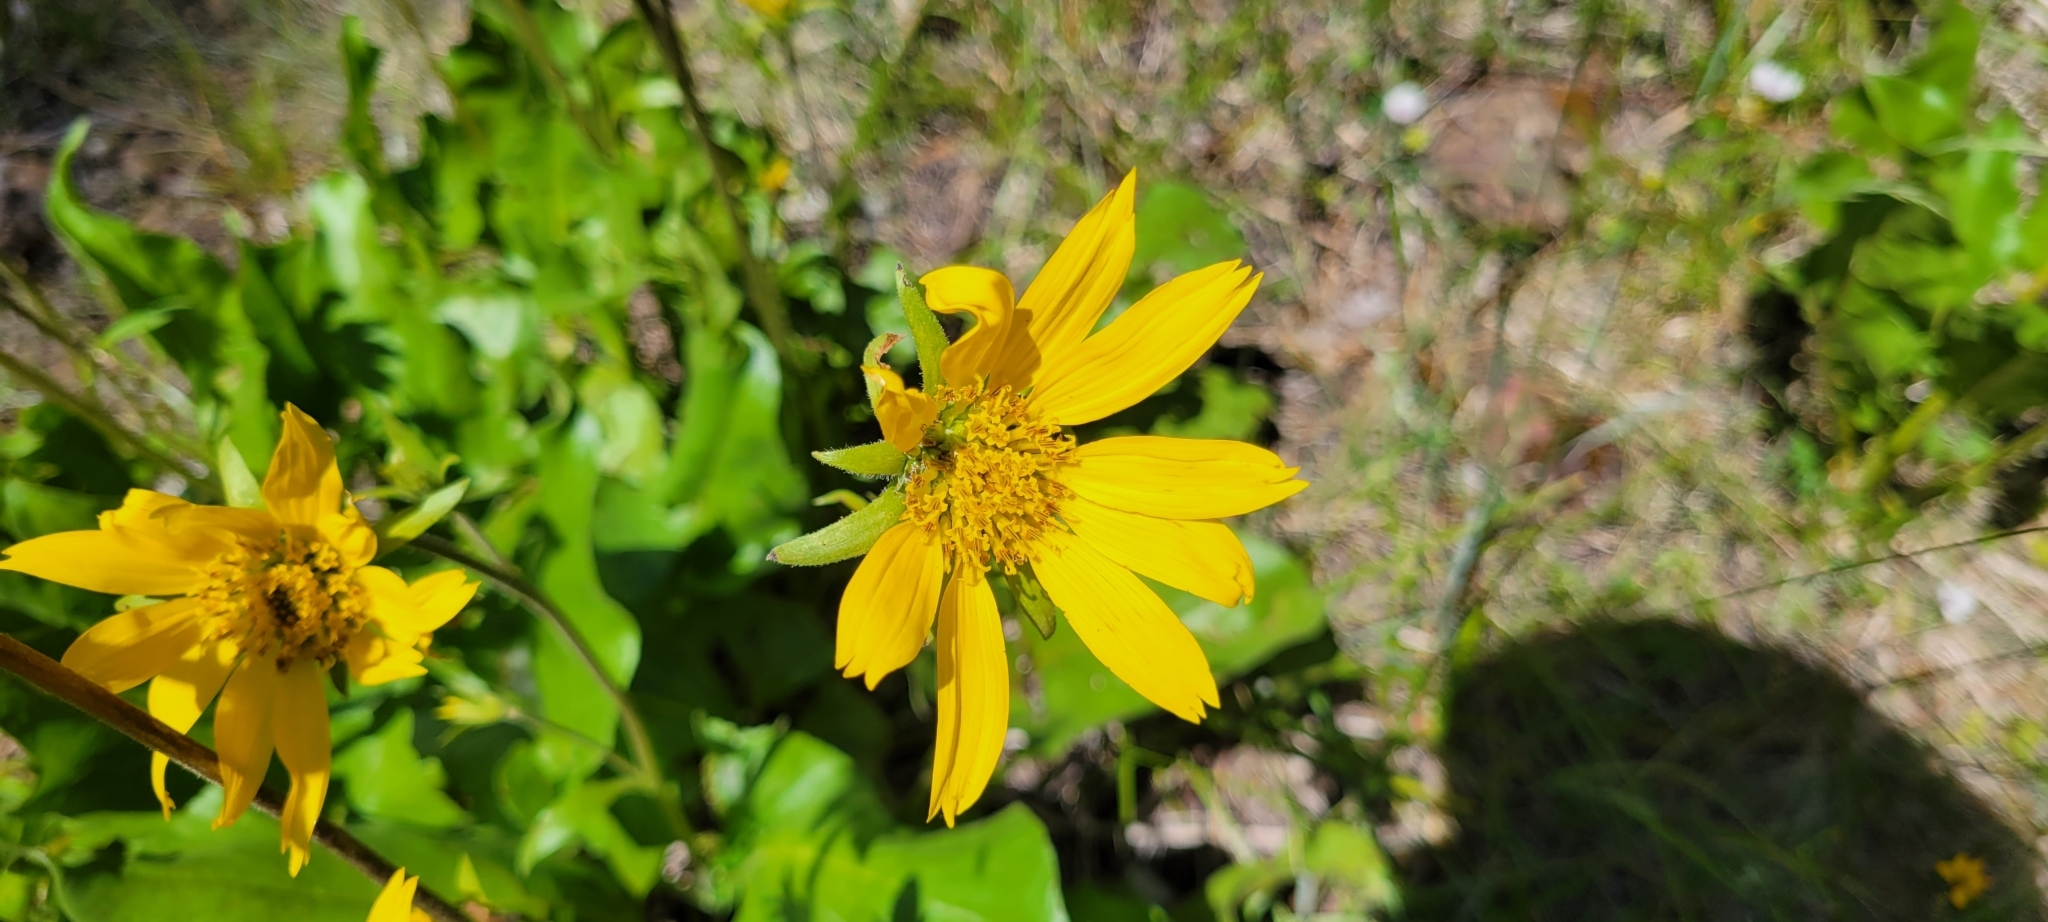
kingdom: Plantae
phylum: Tracheophyta
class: Magnoliopsida
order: Asterales
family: Asteraceae
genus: Balsamorhiza
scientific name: Balsamorhiza deltoidea
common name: Deltoid balsamroot
